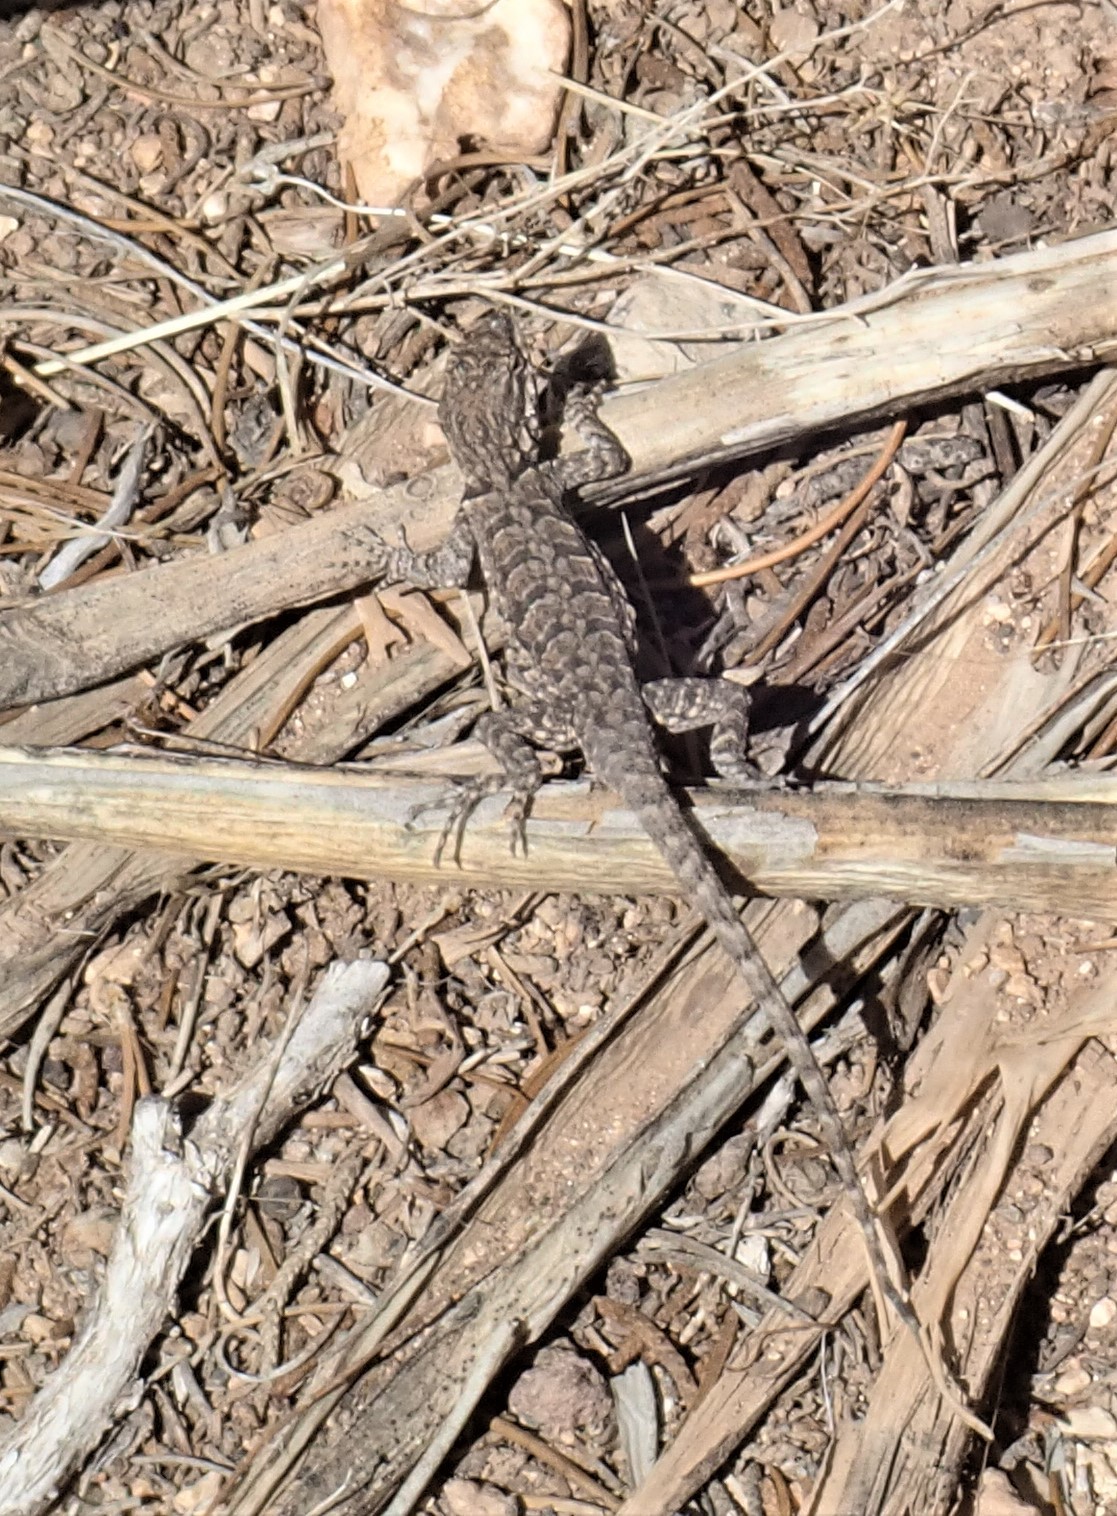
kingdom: Animalia
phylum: Chordata
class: Squamata
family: Phrynosomatidae
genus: Urosaurus
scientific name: Urosaurus ornatus
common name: Ornate tree lizard
